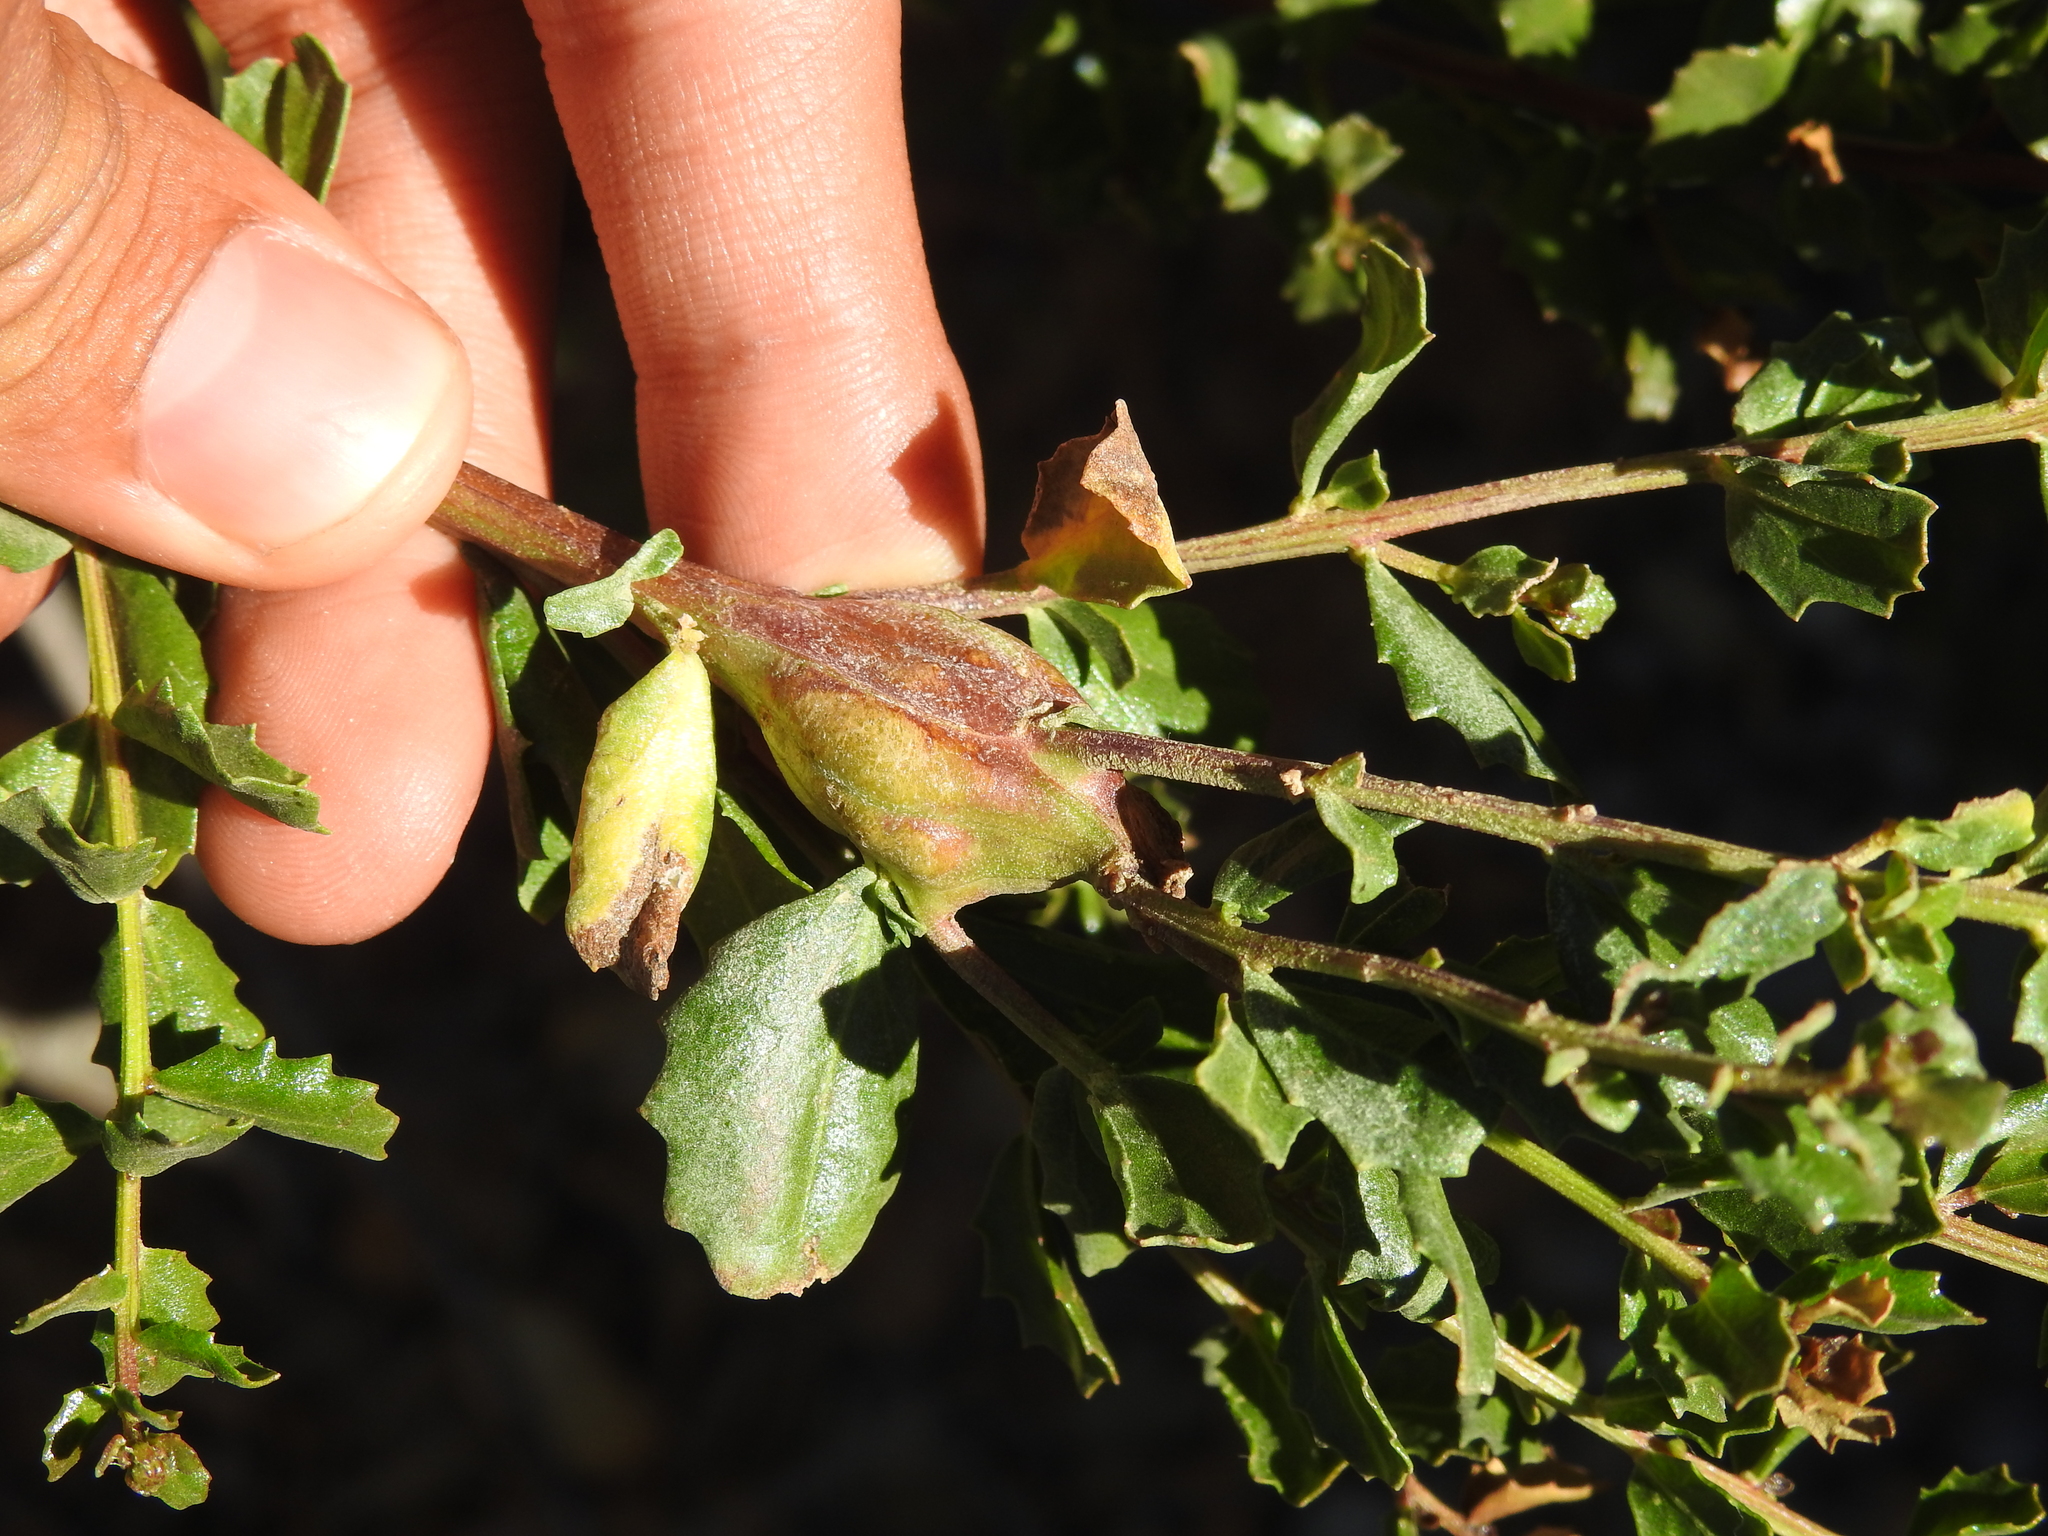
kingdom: Animalia
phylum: Arthropoda
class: Insecta
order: Lepidoptera
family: Gelechiidae
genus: Gnorimoschema
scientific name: Gnorimoschema baccharisella
